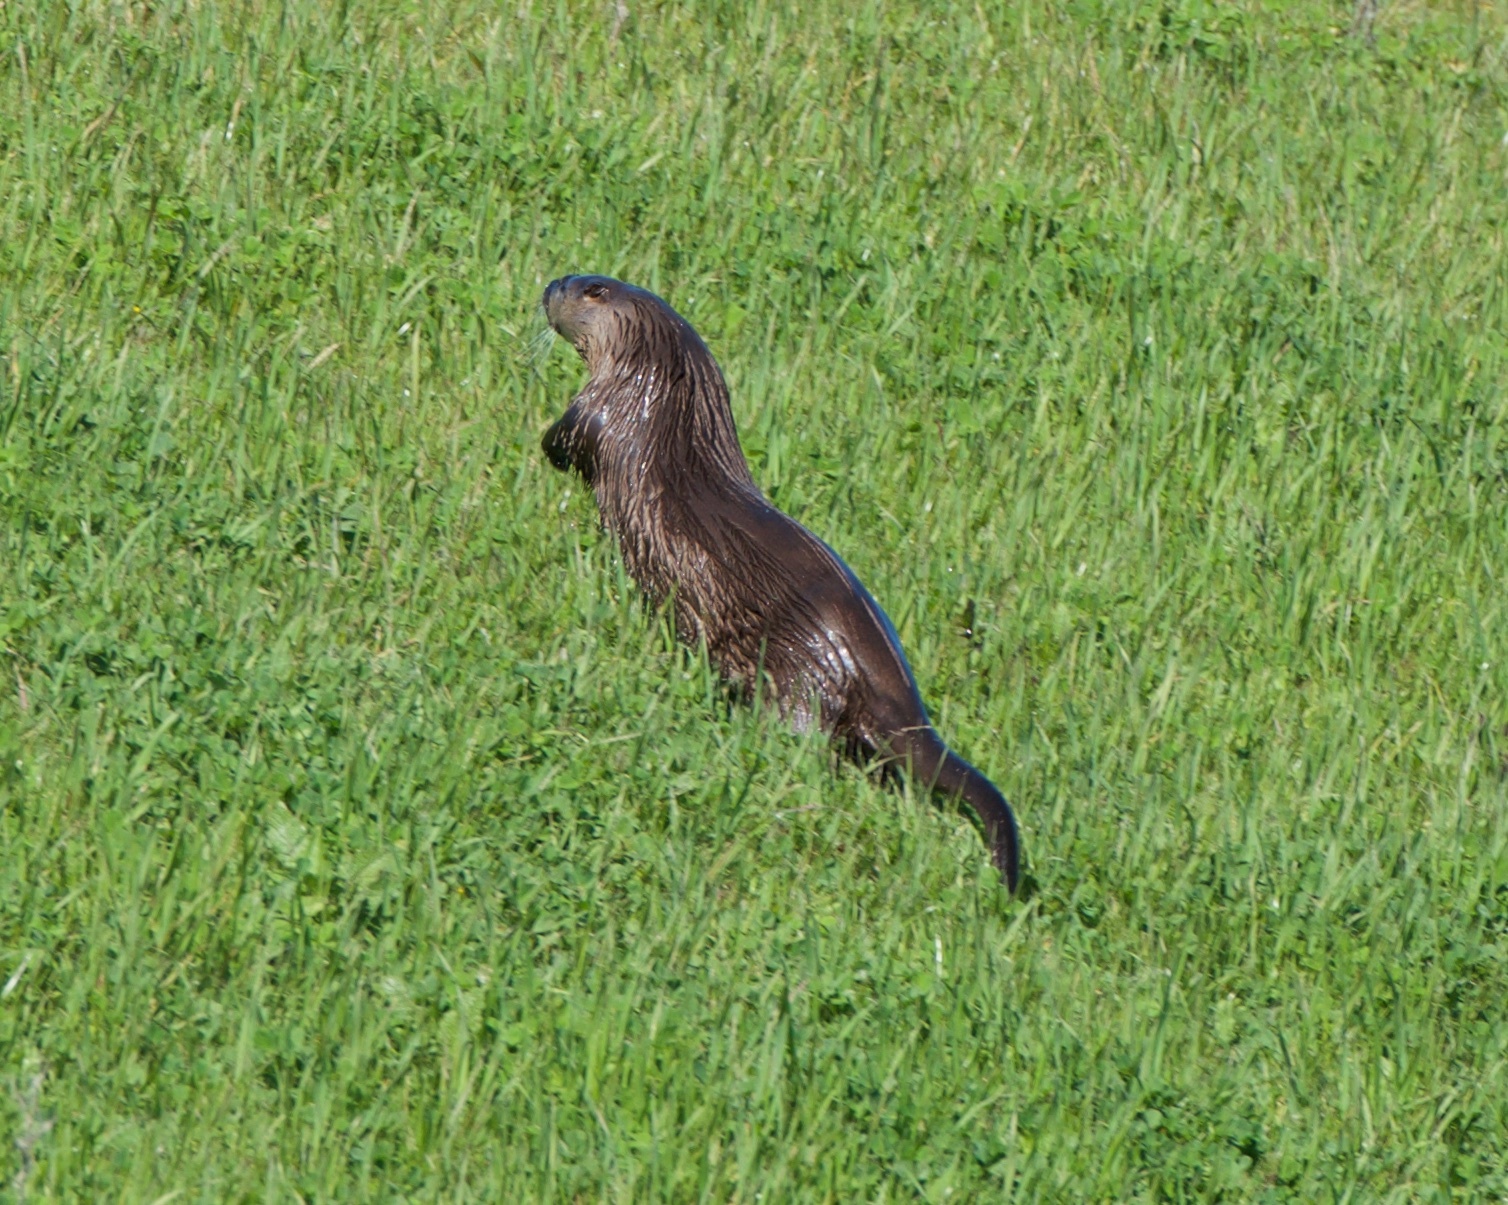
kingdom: Animalia
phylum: Chordata
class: Mammalia
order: Carnivora
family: Mustelidae
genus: Lontra
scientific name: Lontra canadensis
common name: North american river otter
